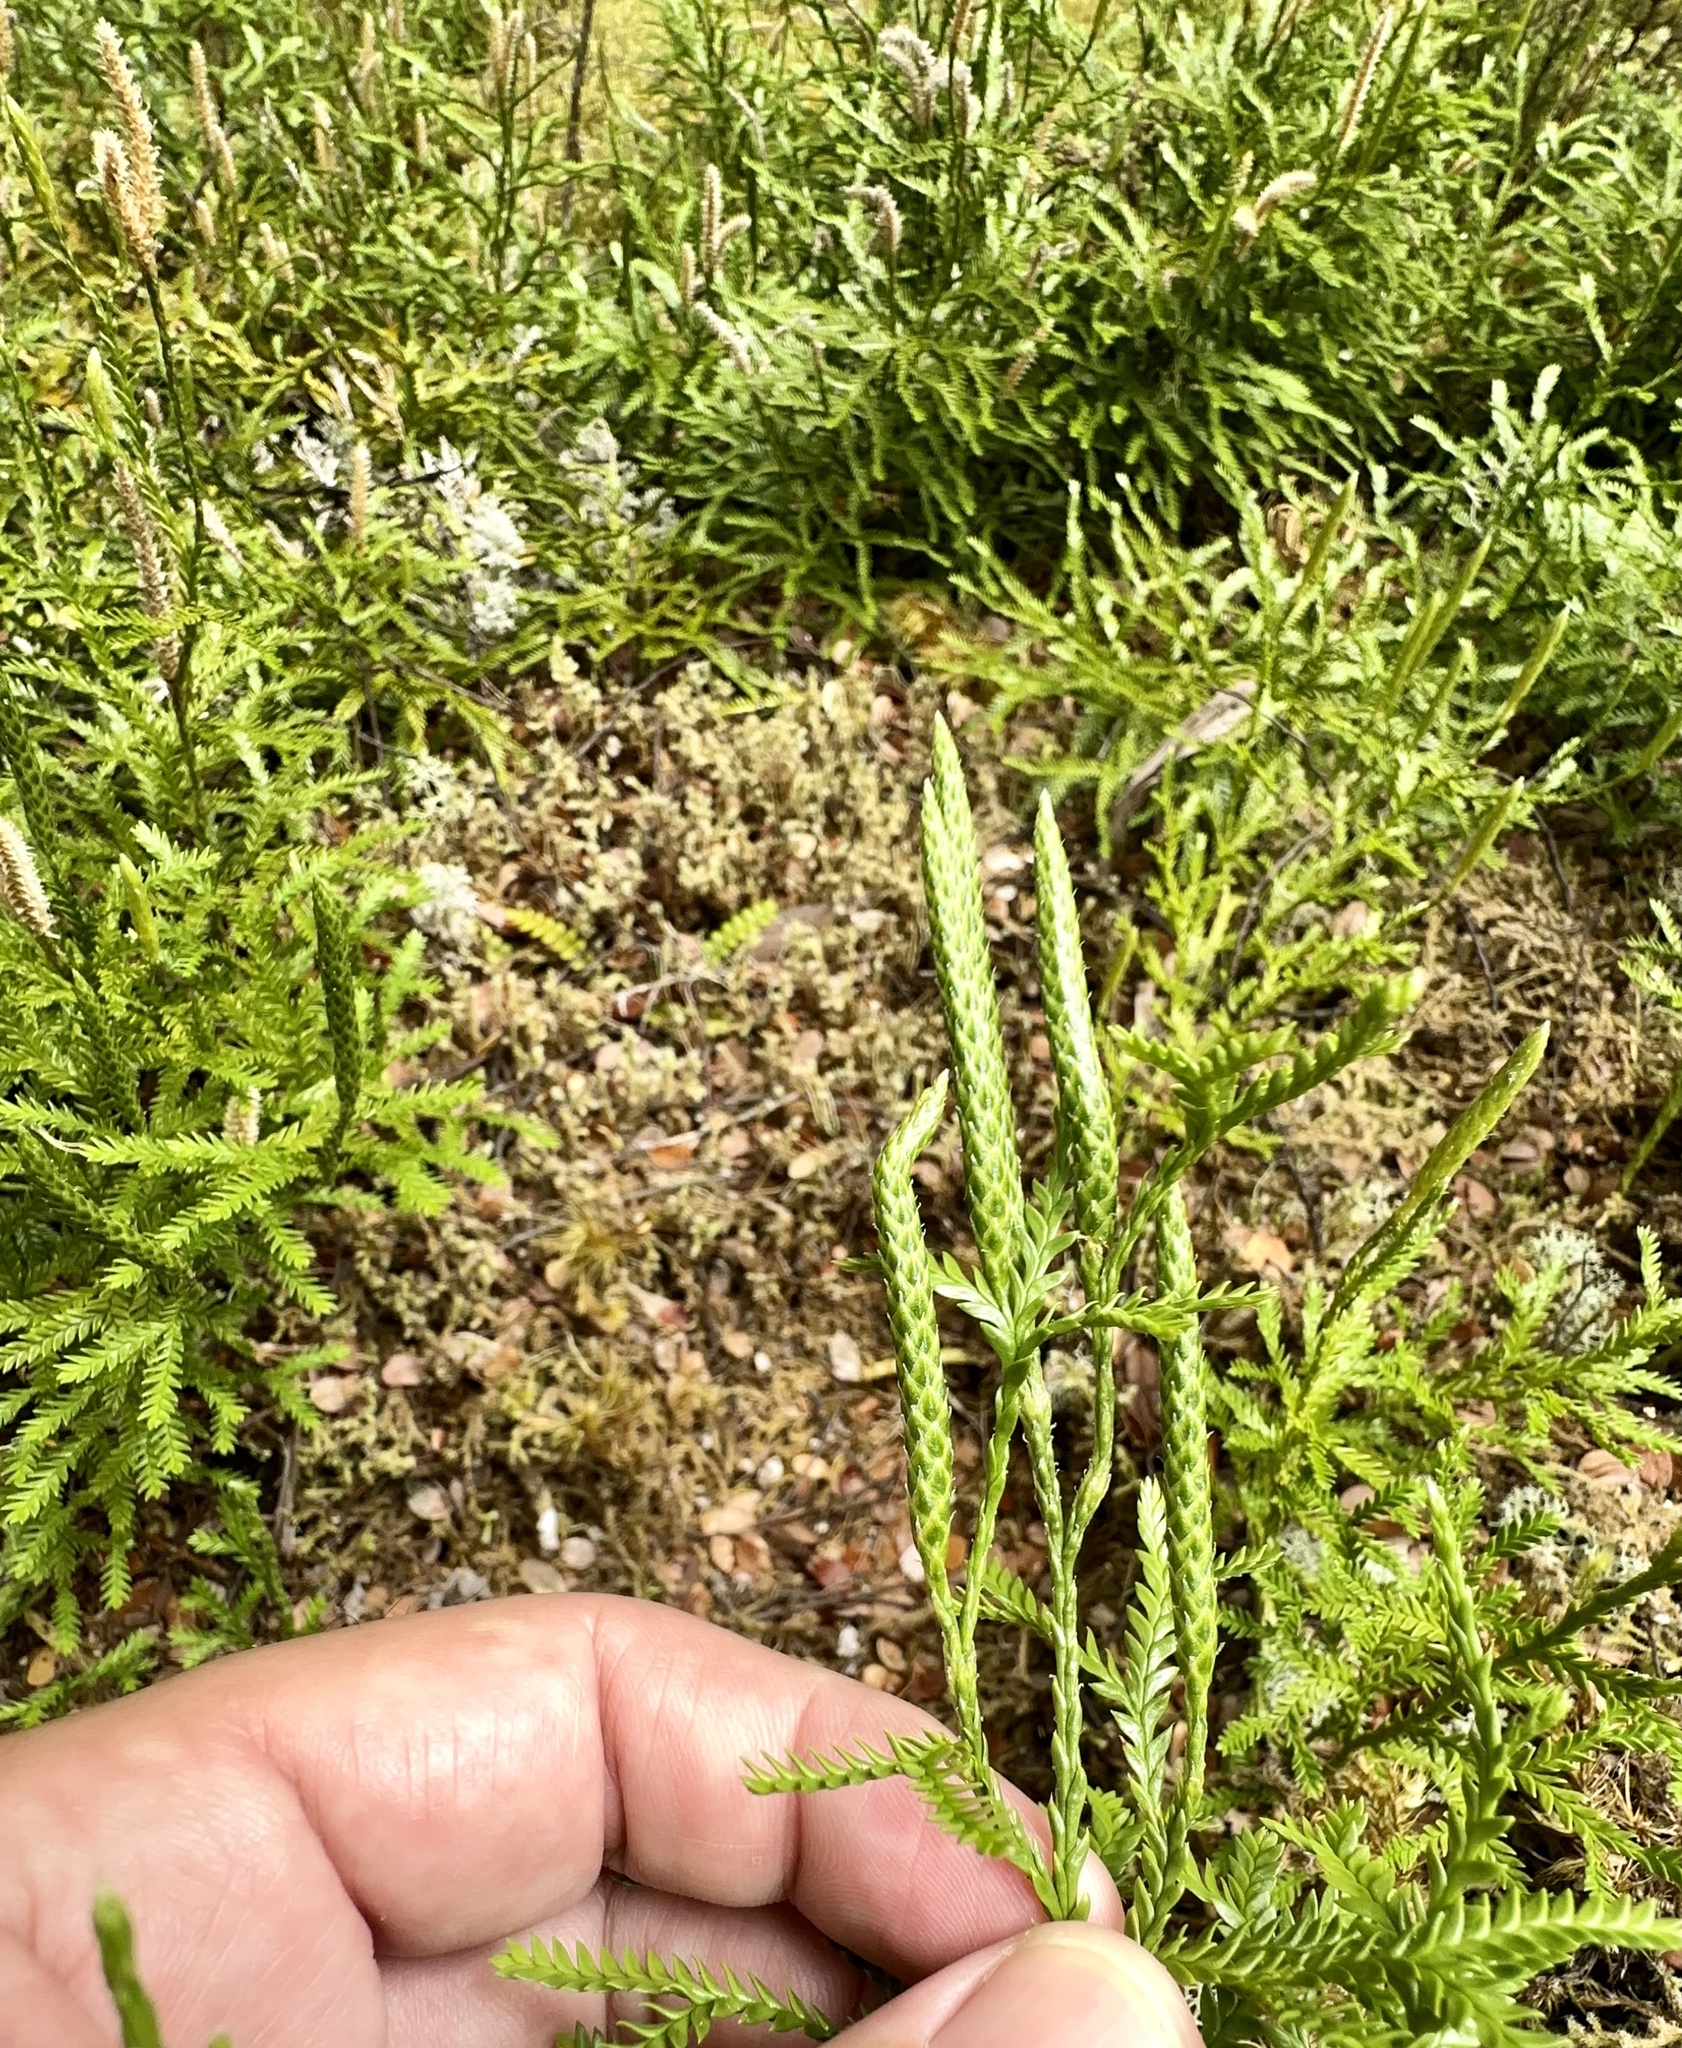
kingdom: Plantae
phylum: Tracheophyta
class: Lycopodiopsida
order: Lycopodiales
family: Lycopodiaceae
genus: Diphasium
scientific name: Diphasium scariosum
